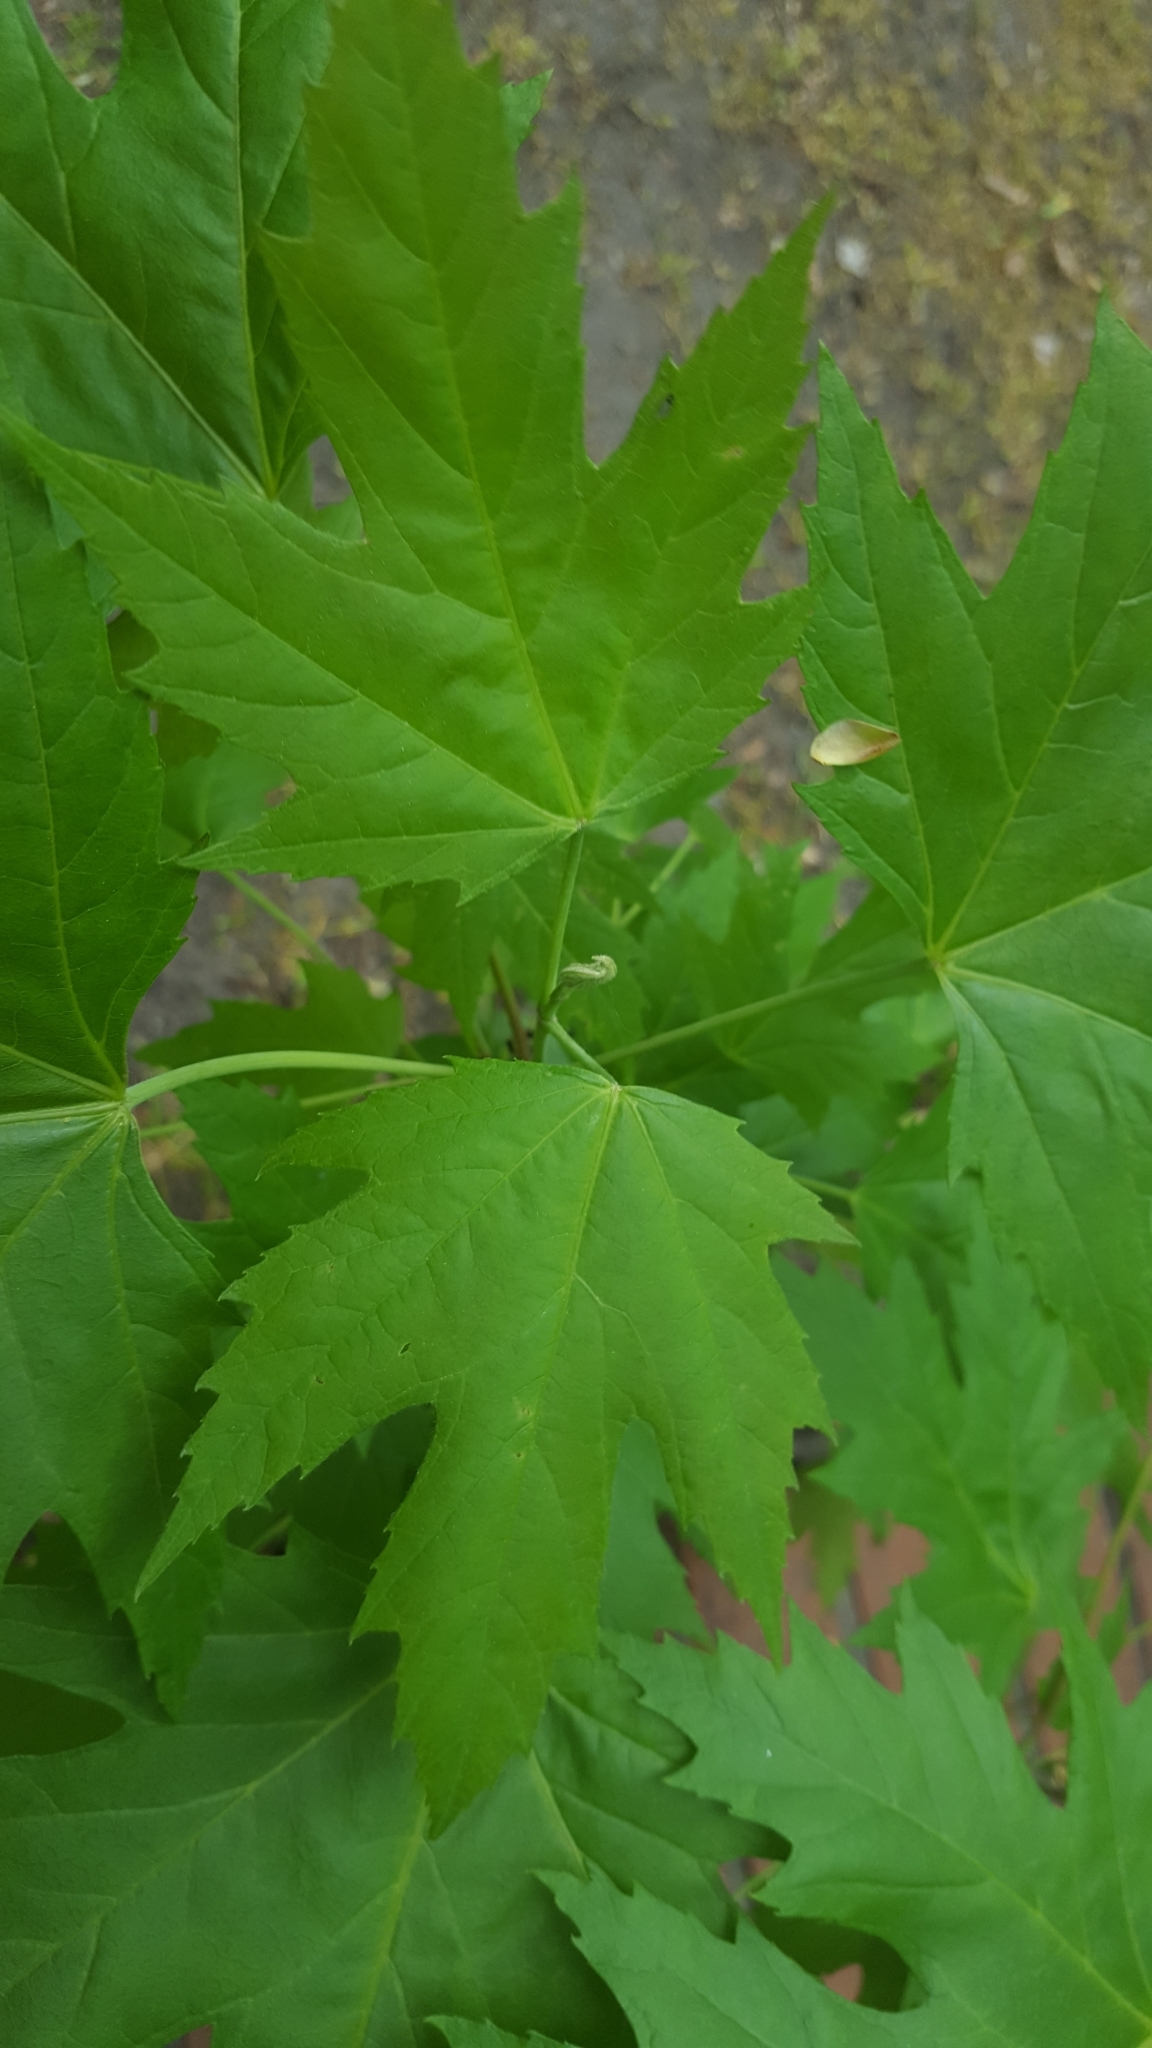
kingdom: Plantae
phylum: Tracheophyta
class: Magnoliopsida
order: Sapindales
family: Sapindaceae
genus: Acer
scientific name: Acer saccharinum
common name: Silver maple
